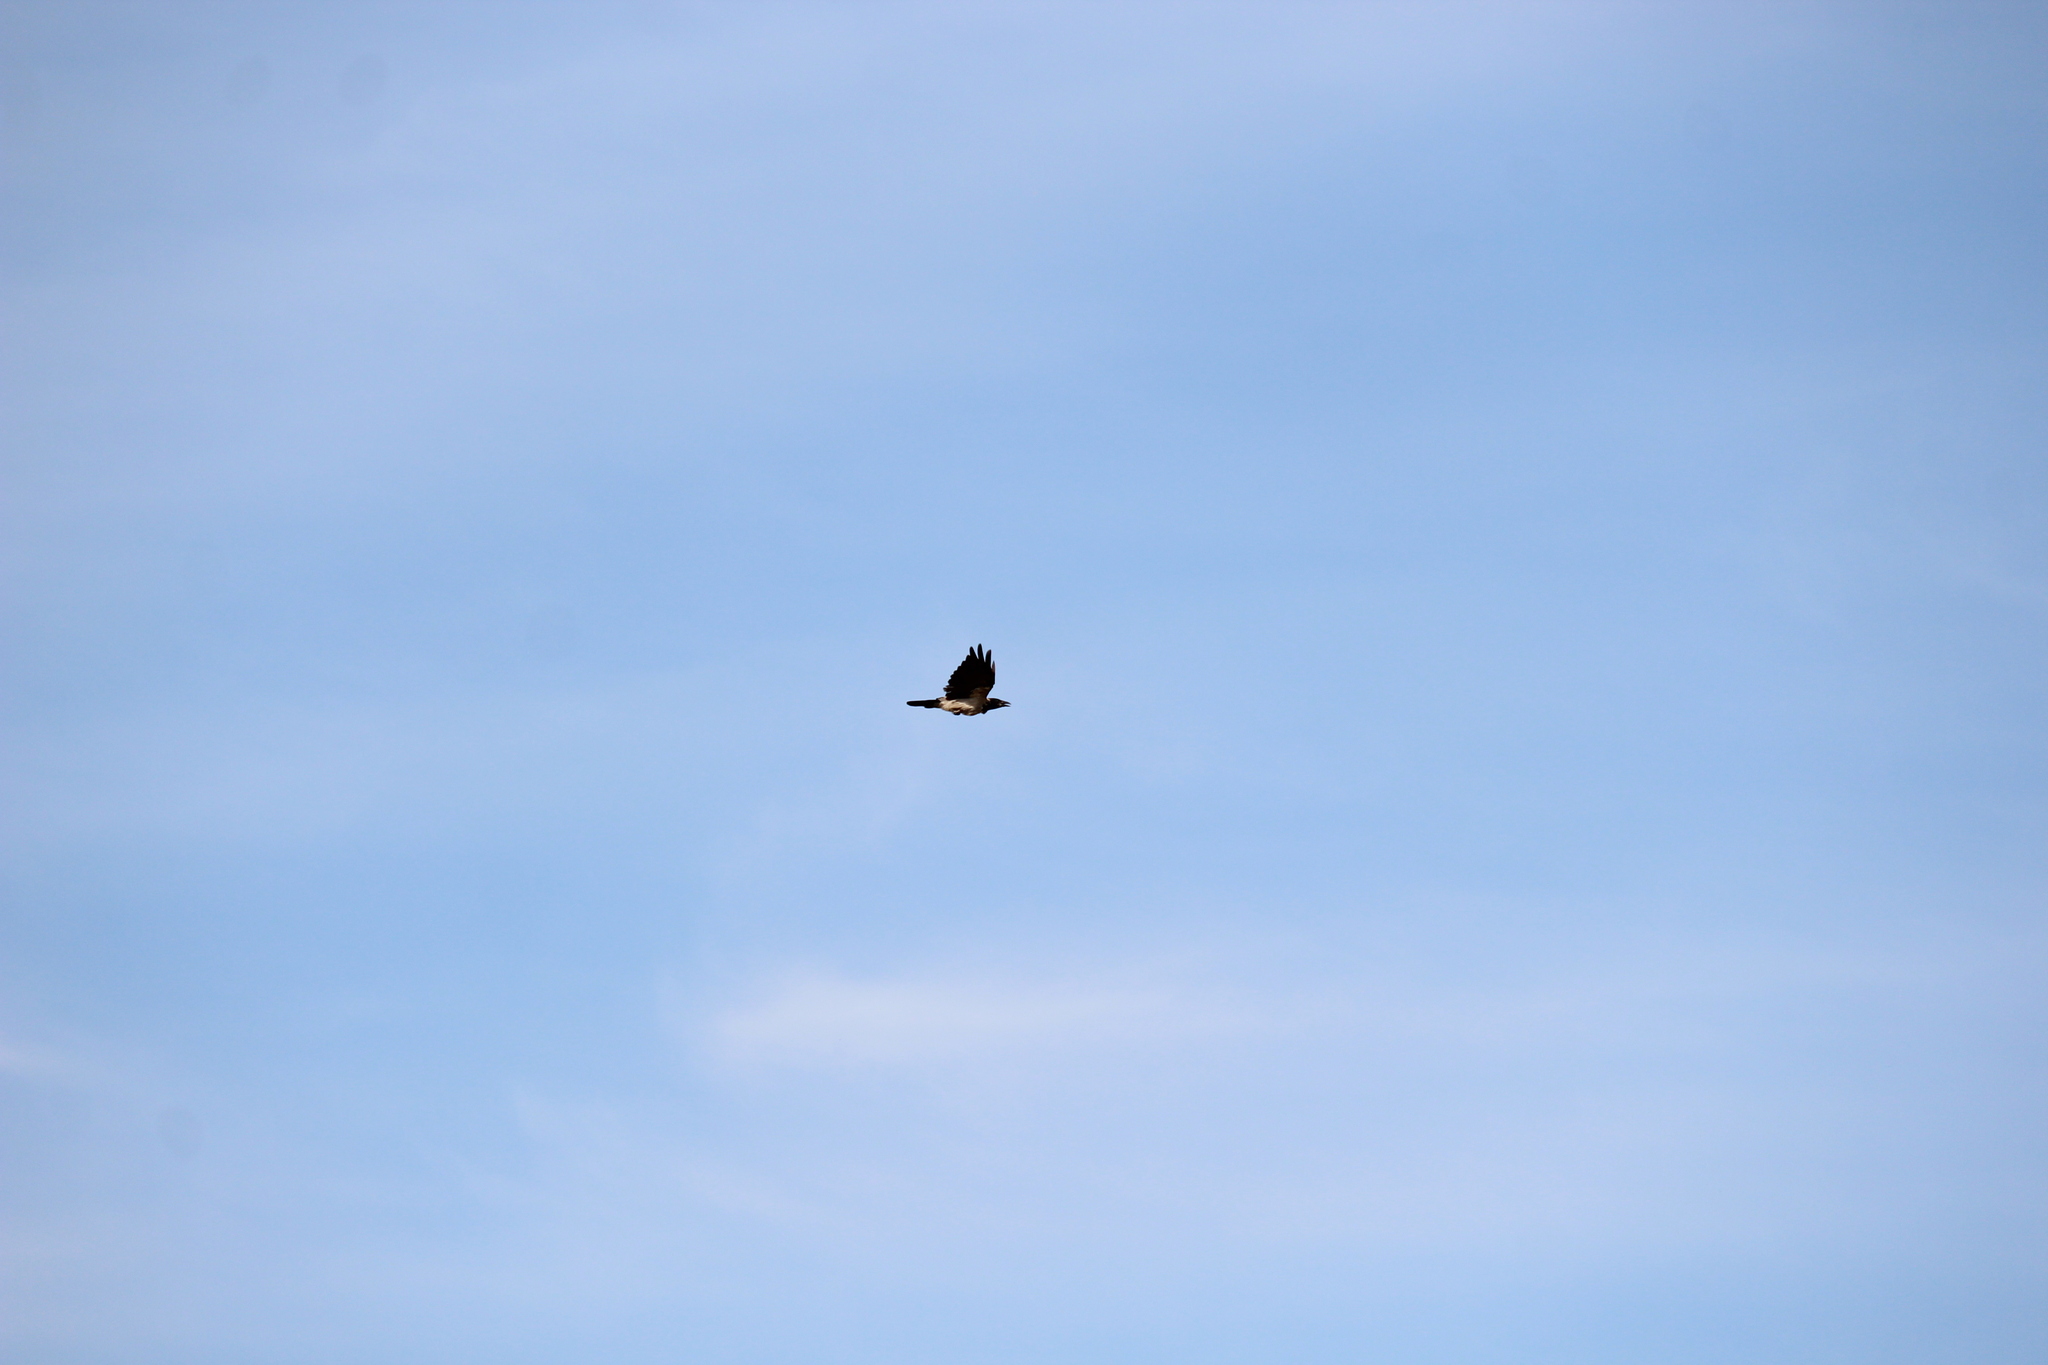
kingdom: Animalia
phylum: Chordata
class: Aves
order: Passeriformes
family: Corvidae
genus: Corvus
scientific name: Corvus cornix
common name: Hooded crow
